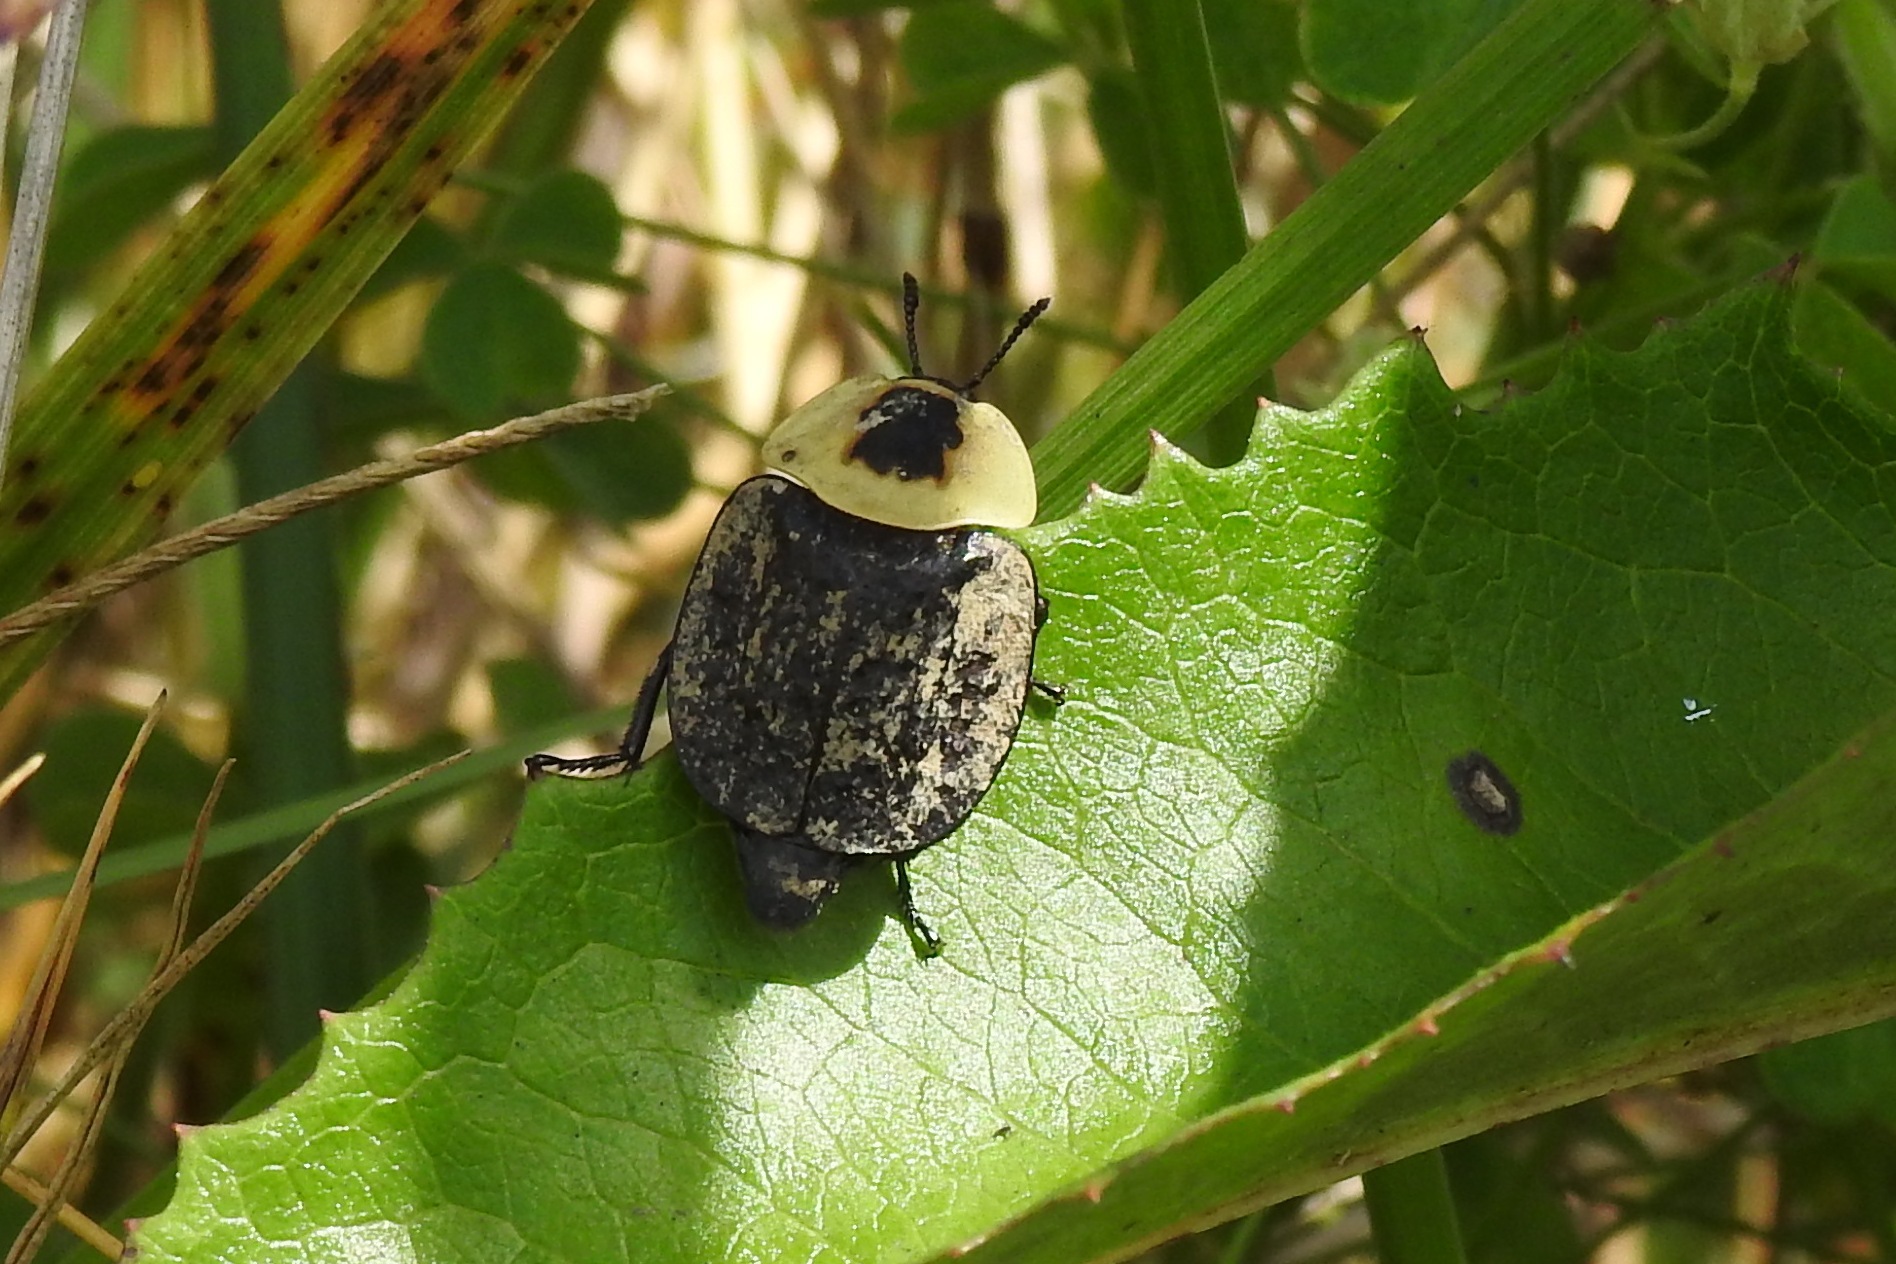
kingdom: Animalia
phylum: Arthropoda
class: Insecta
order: Coleoptera
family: Staphylinidae
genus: Necrophila
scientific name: Necrophila americana
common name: American carrion beetle
